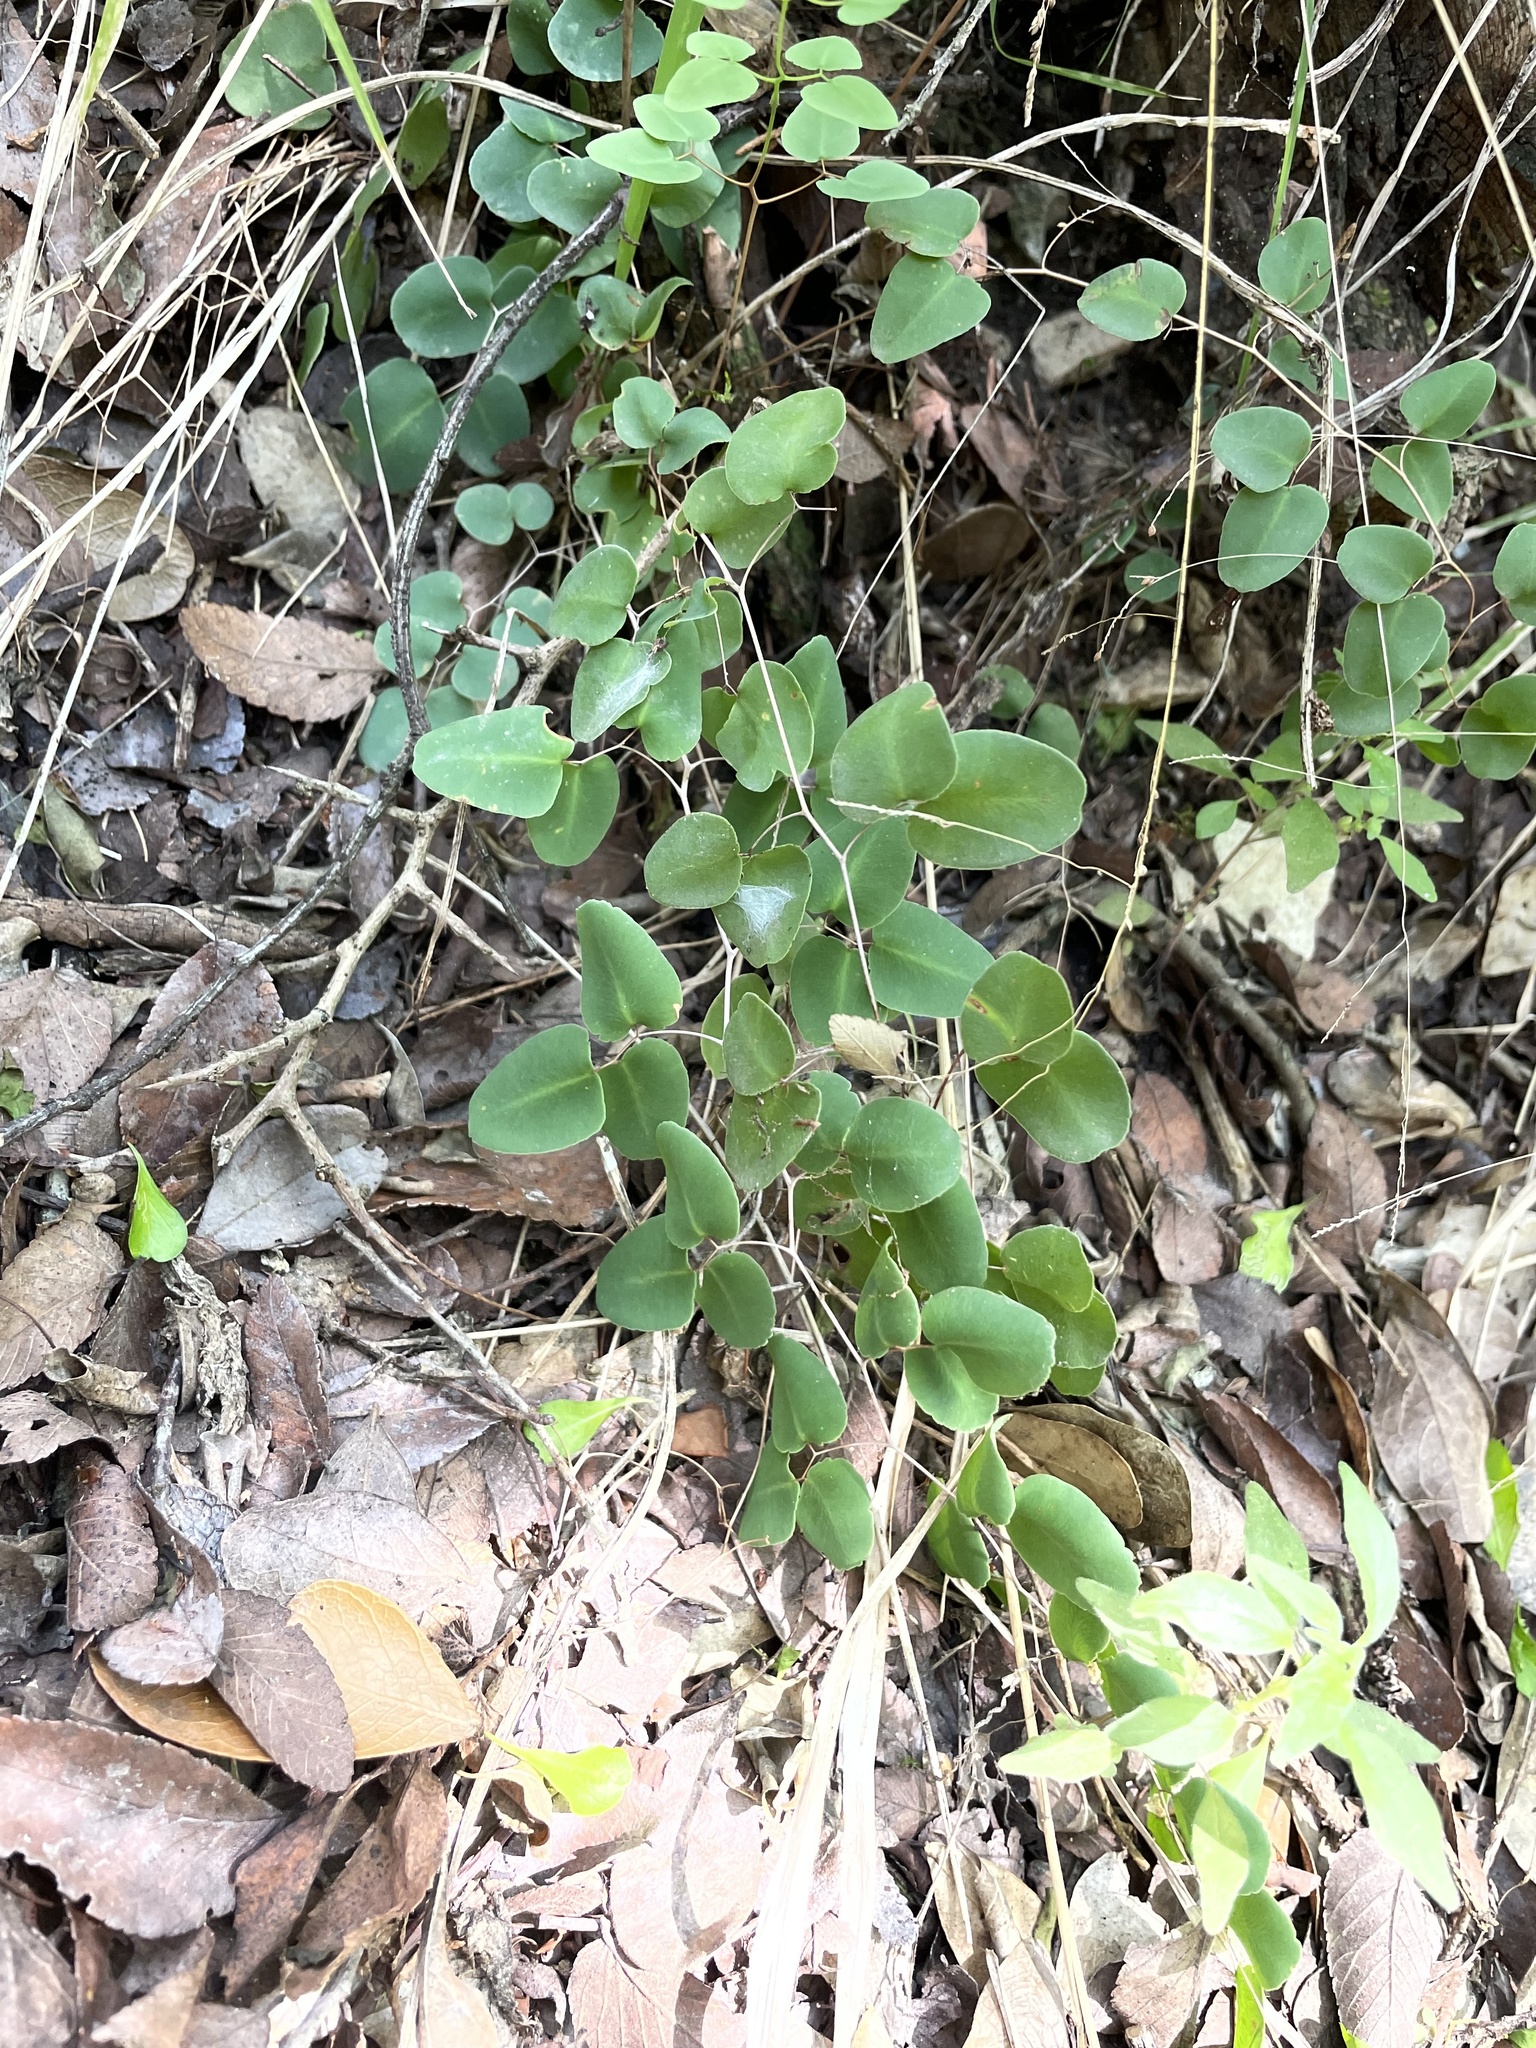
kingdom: Plantae
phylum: Tracheophyta
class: Polypodiopsida
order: Polypodiales
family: Pteridaceae
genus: Pellaea
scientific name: Pellaea ovata
